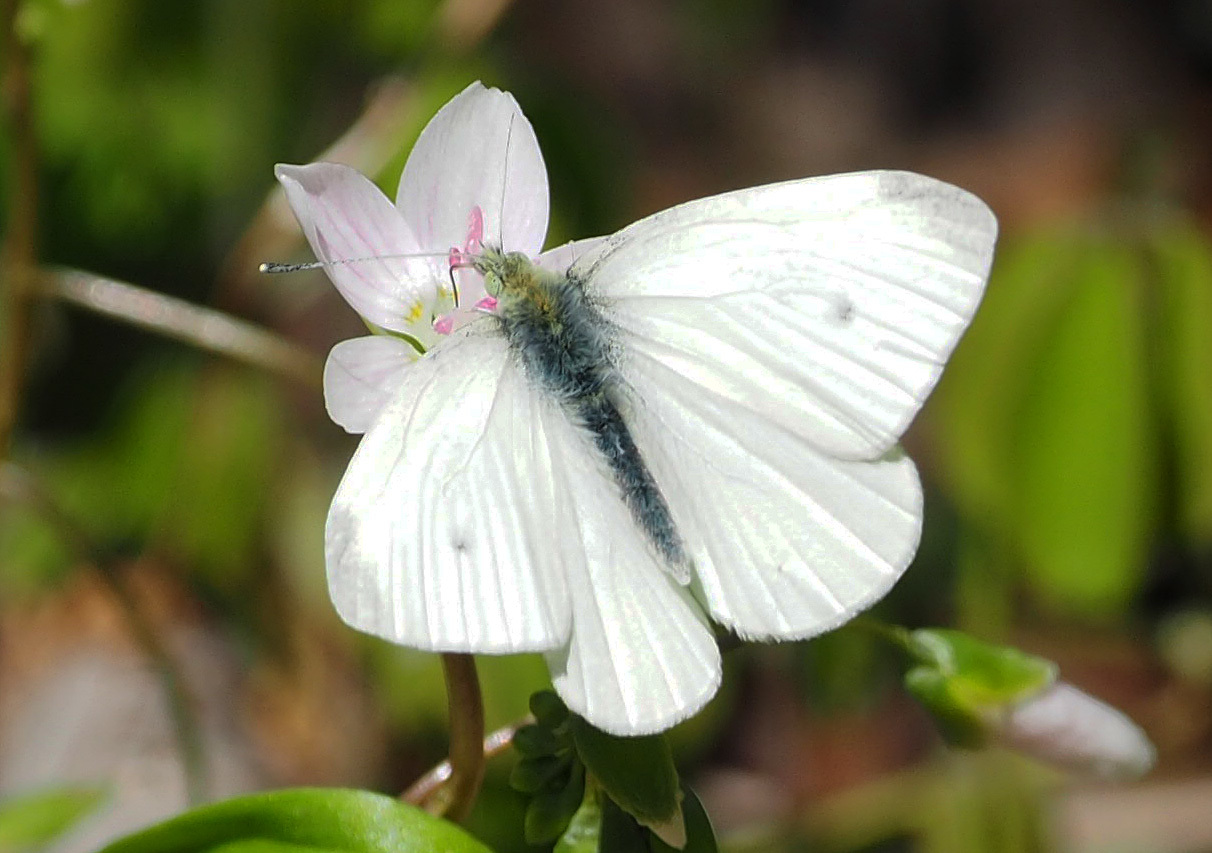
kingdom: Animalia
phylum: Arthropoda
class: Insecta
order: Lepidoptera
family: Pieridae
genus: Pieris
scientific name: Pieris rapae
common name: Small white
